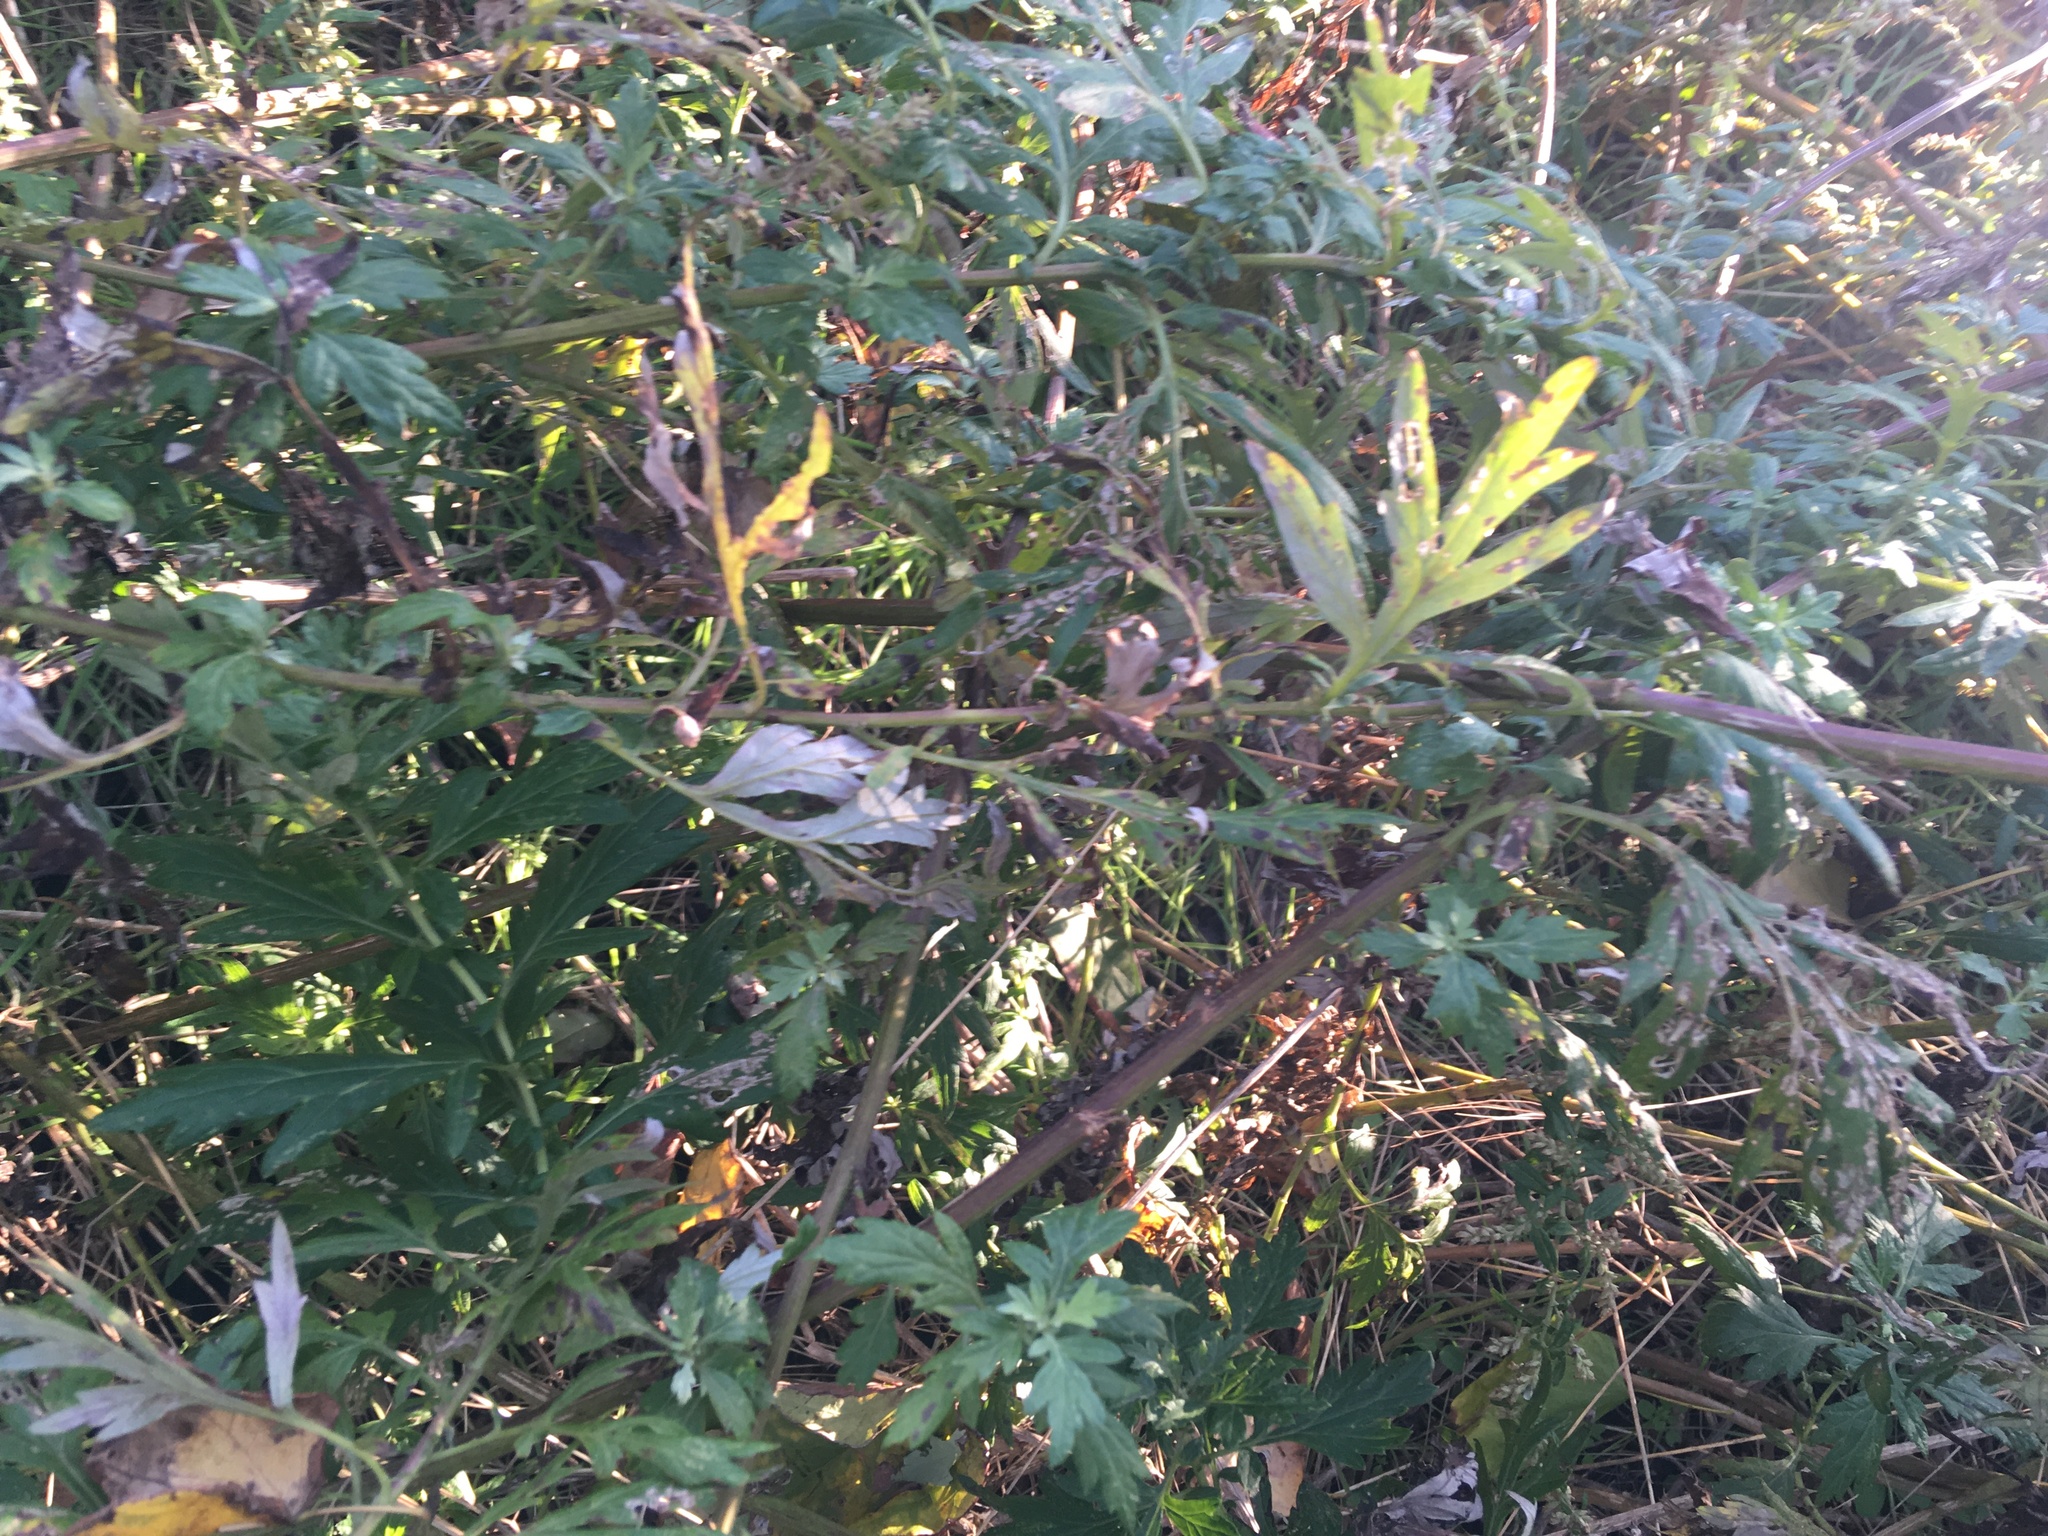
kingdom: Plantae
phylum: Tracheophyta
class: Magnoliopsida
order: Asterales
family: Asteraceae
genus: Artemisia
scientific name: Artemisia vulgaris
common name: Mugwort
